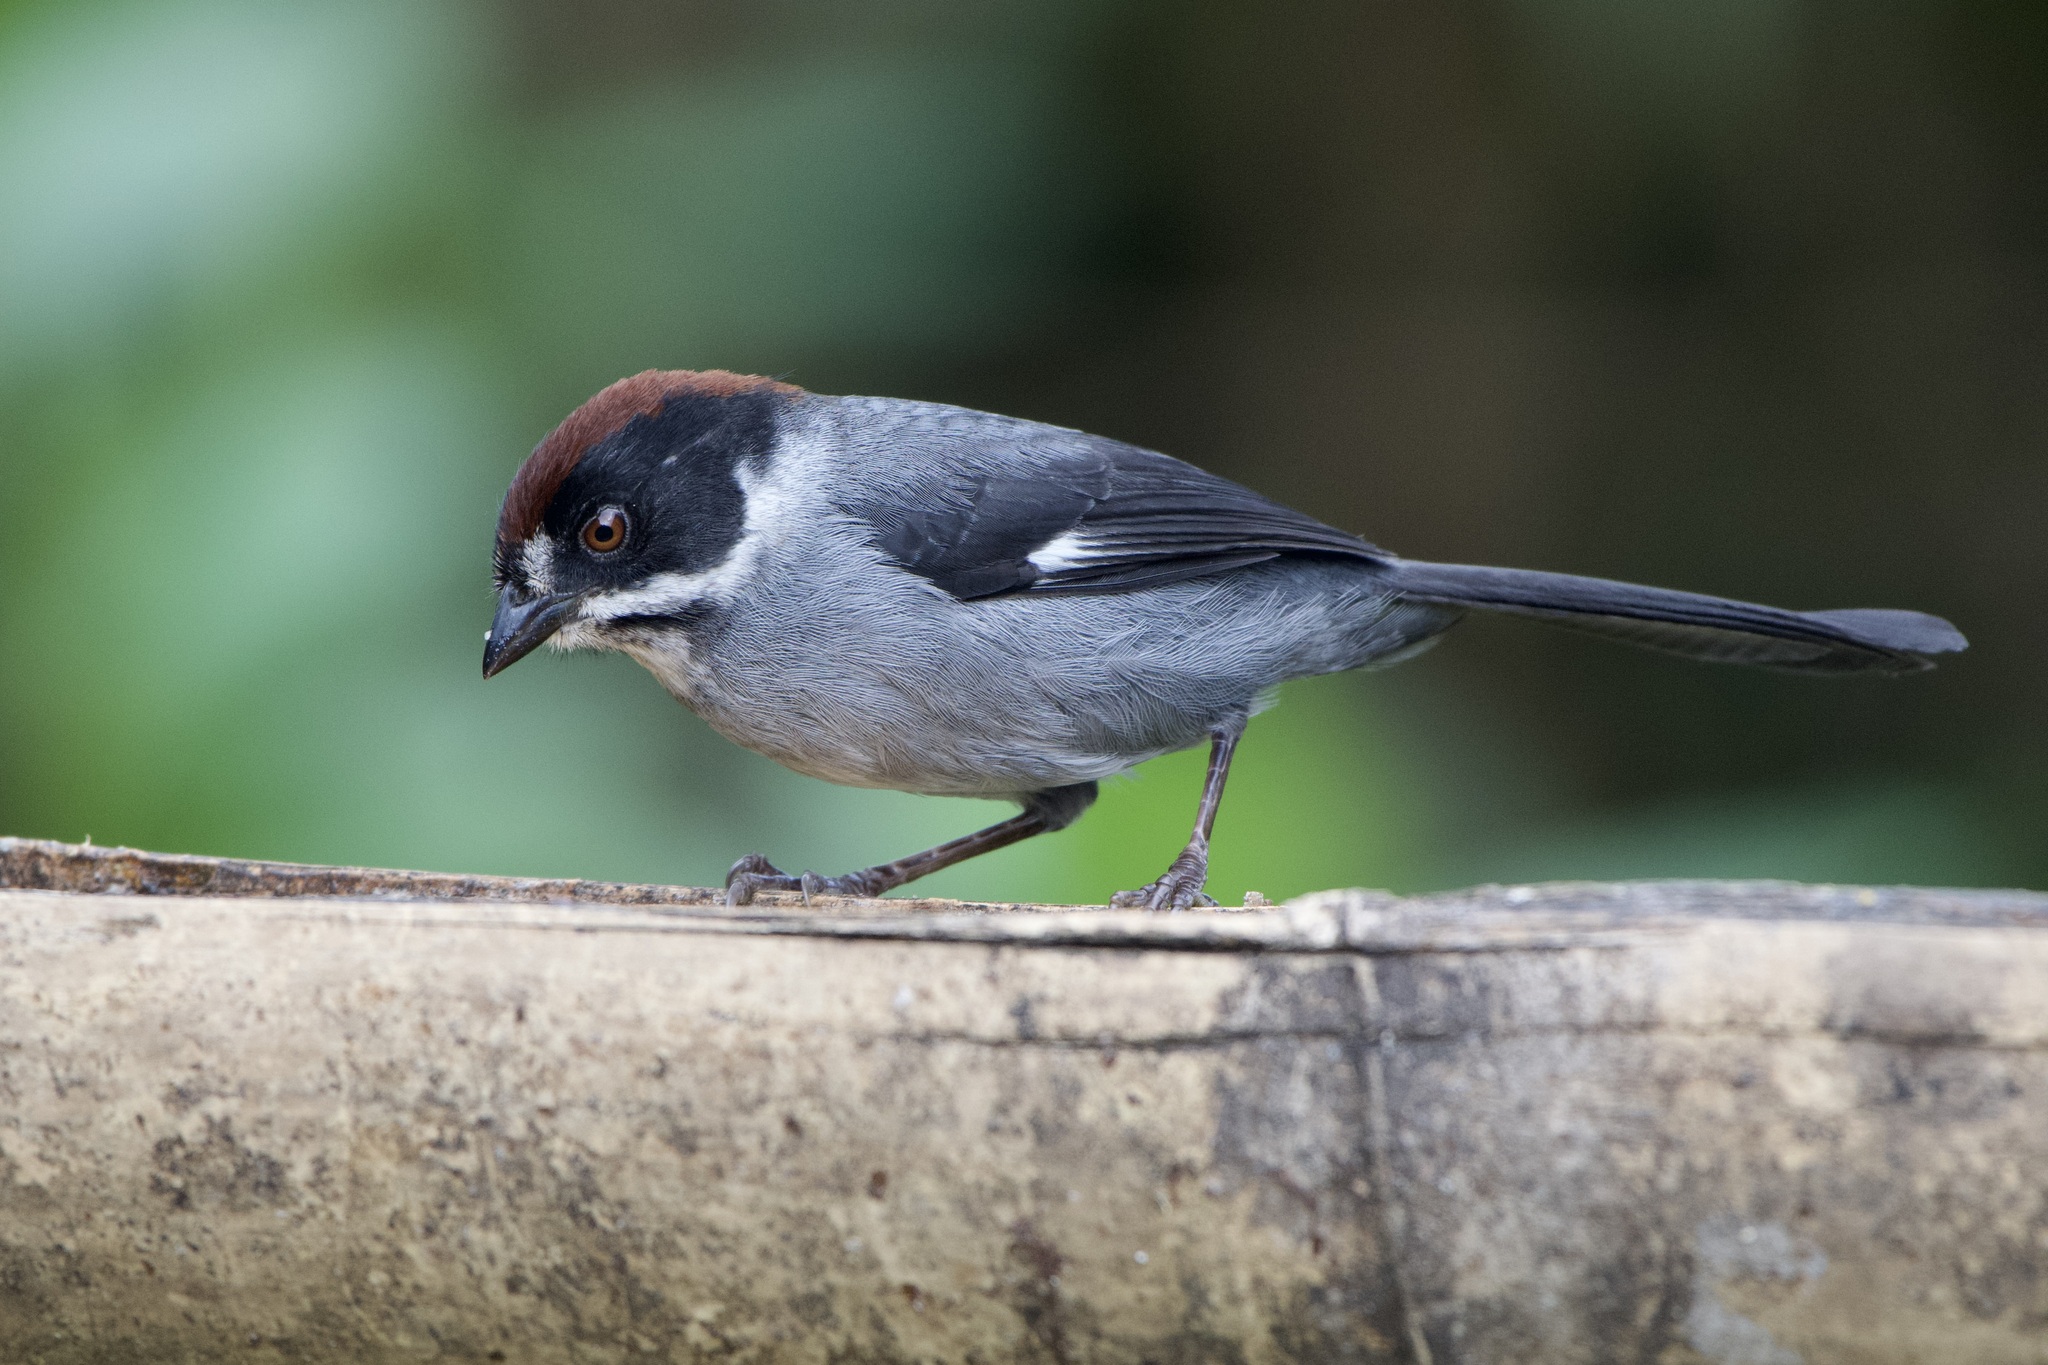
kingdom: Animalia
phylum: Chordata
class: Aves
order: Passeriformes
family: Passerellidae
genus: Atlapetes
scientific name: Atlapetes schistaceus
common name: Slaty brushfinch
